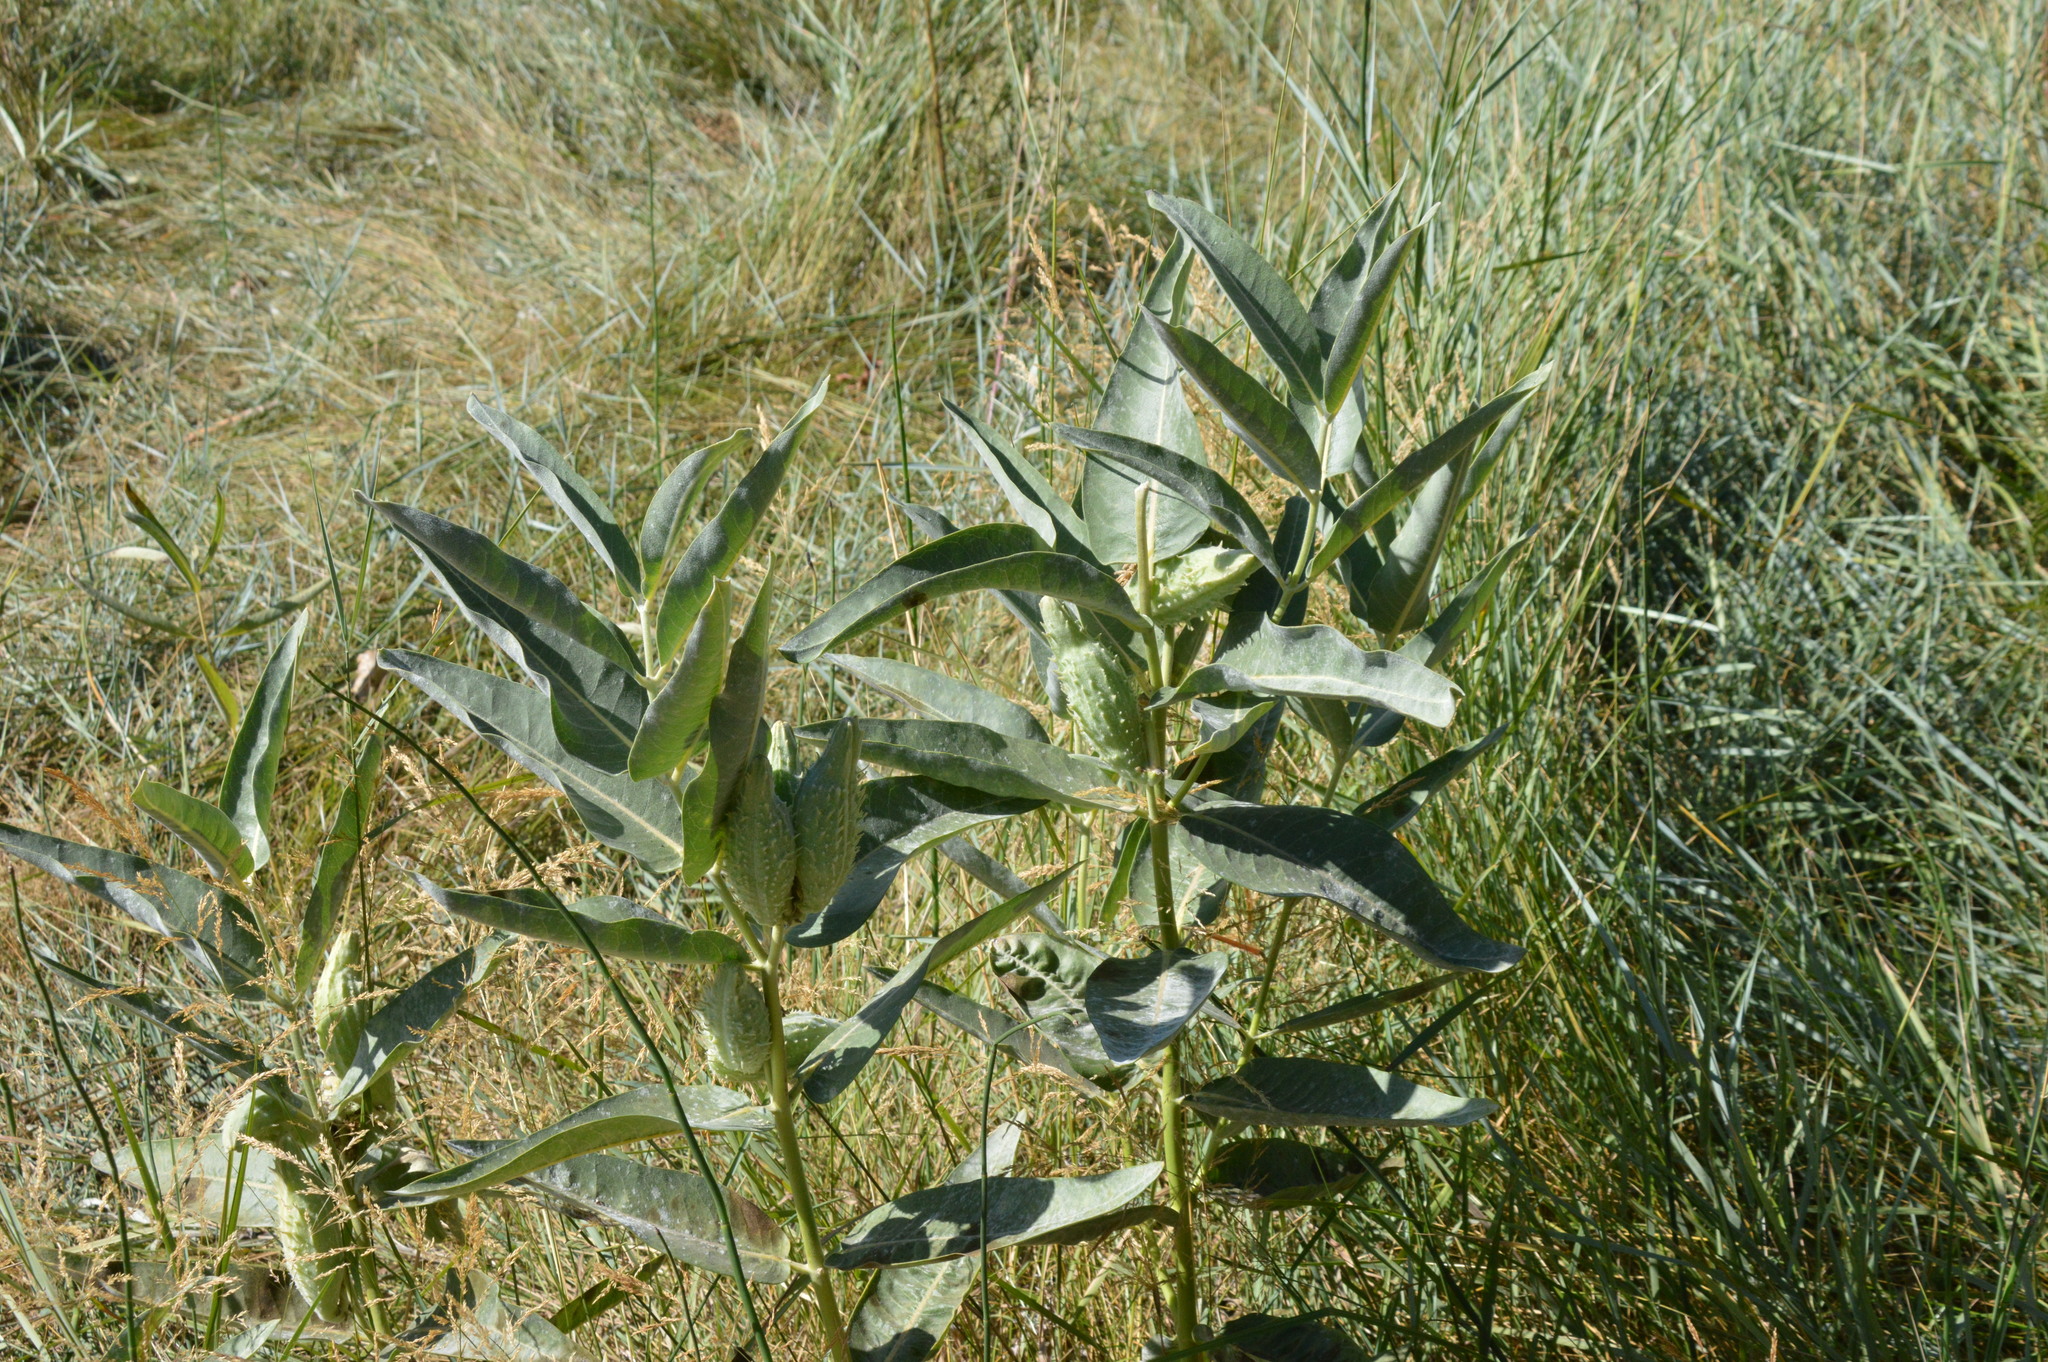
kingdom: Plantae
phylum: Tracheophyta
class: Magnoliopsida
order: Gentianales
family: Apocynaceae
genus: Asclepias
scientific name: Asclepias speciosa
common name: Showy milkweed
